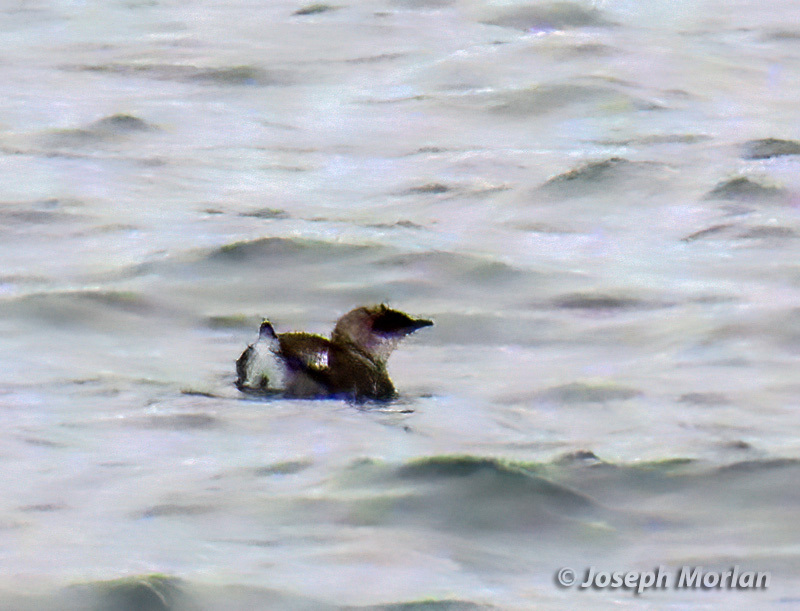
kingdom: Animalia
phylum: Chordata
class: Aves
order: Charadriiformes
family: Alcidae
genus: Brachyramphus
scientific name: Brachyramphus marmoratus
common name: Marbled murrelet
